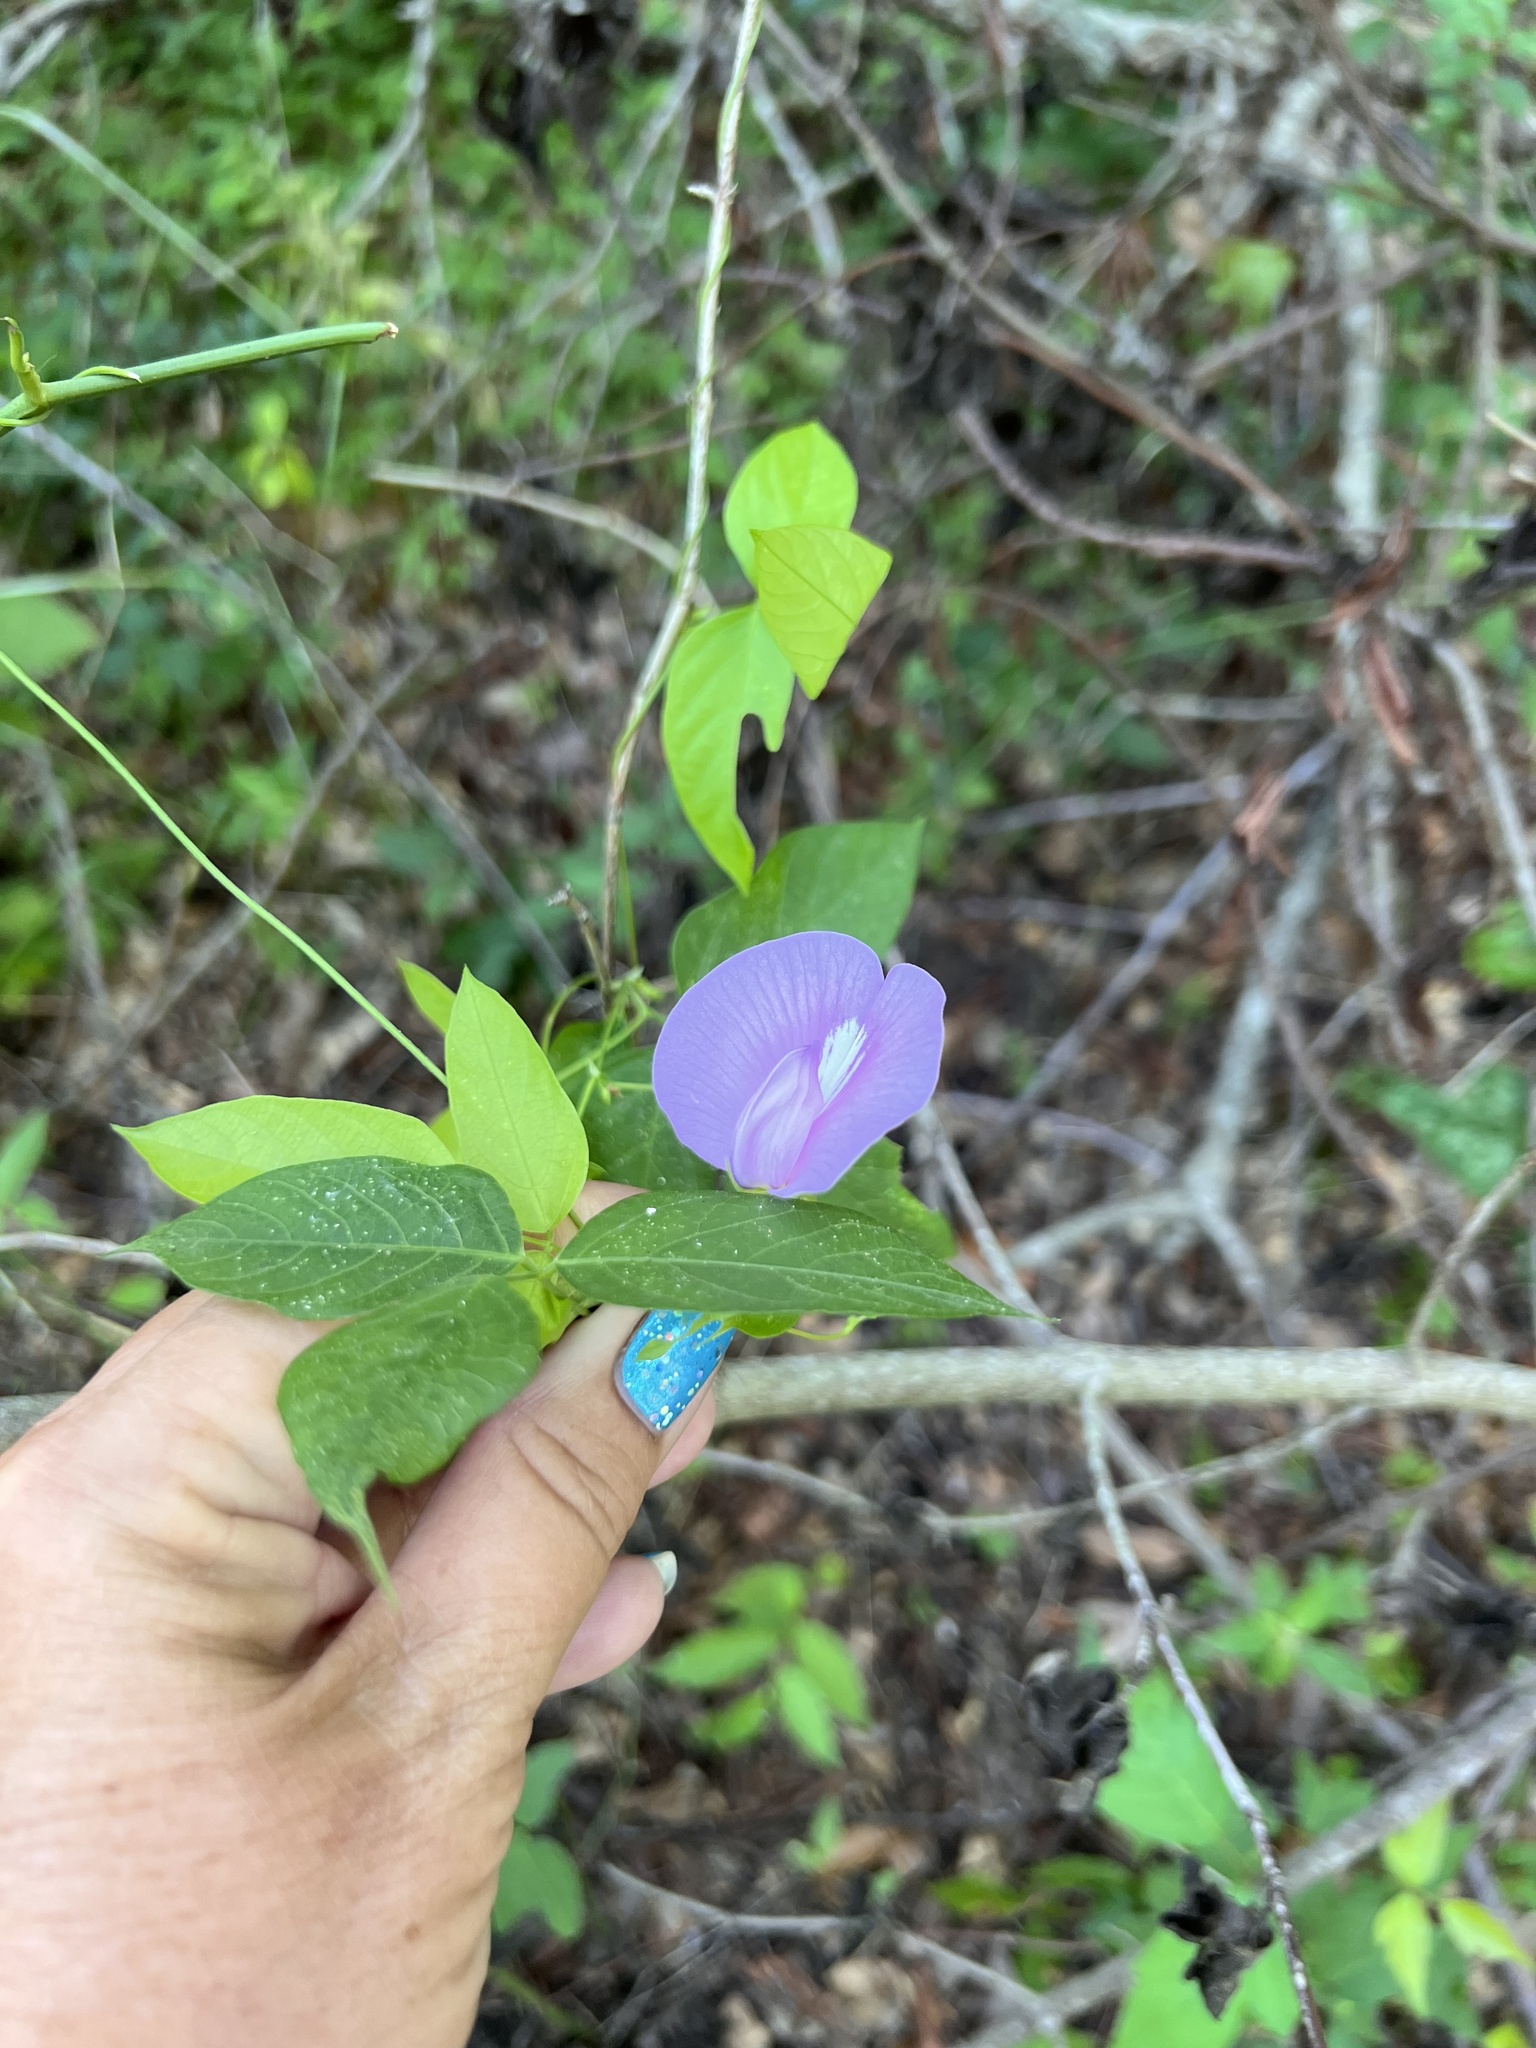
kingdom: Plantae
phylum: Tracheophyta
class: Magnoliopsida
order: Fabales
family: Fabaceae
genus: Centrosema
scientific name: Centrosema virginianum
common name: Butterfly-pea
